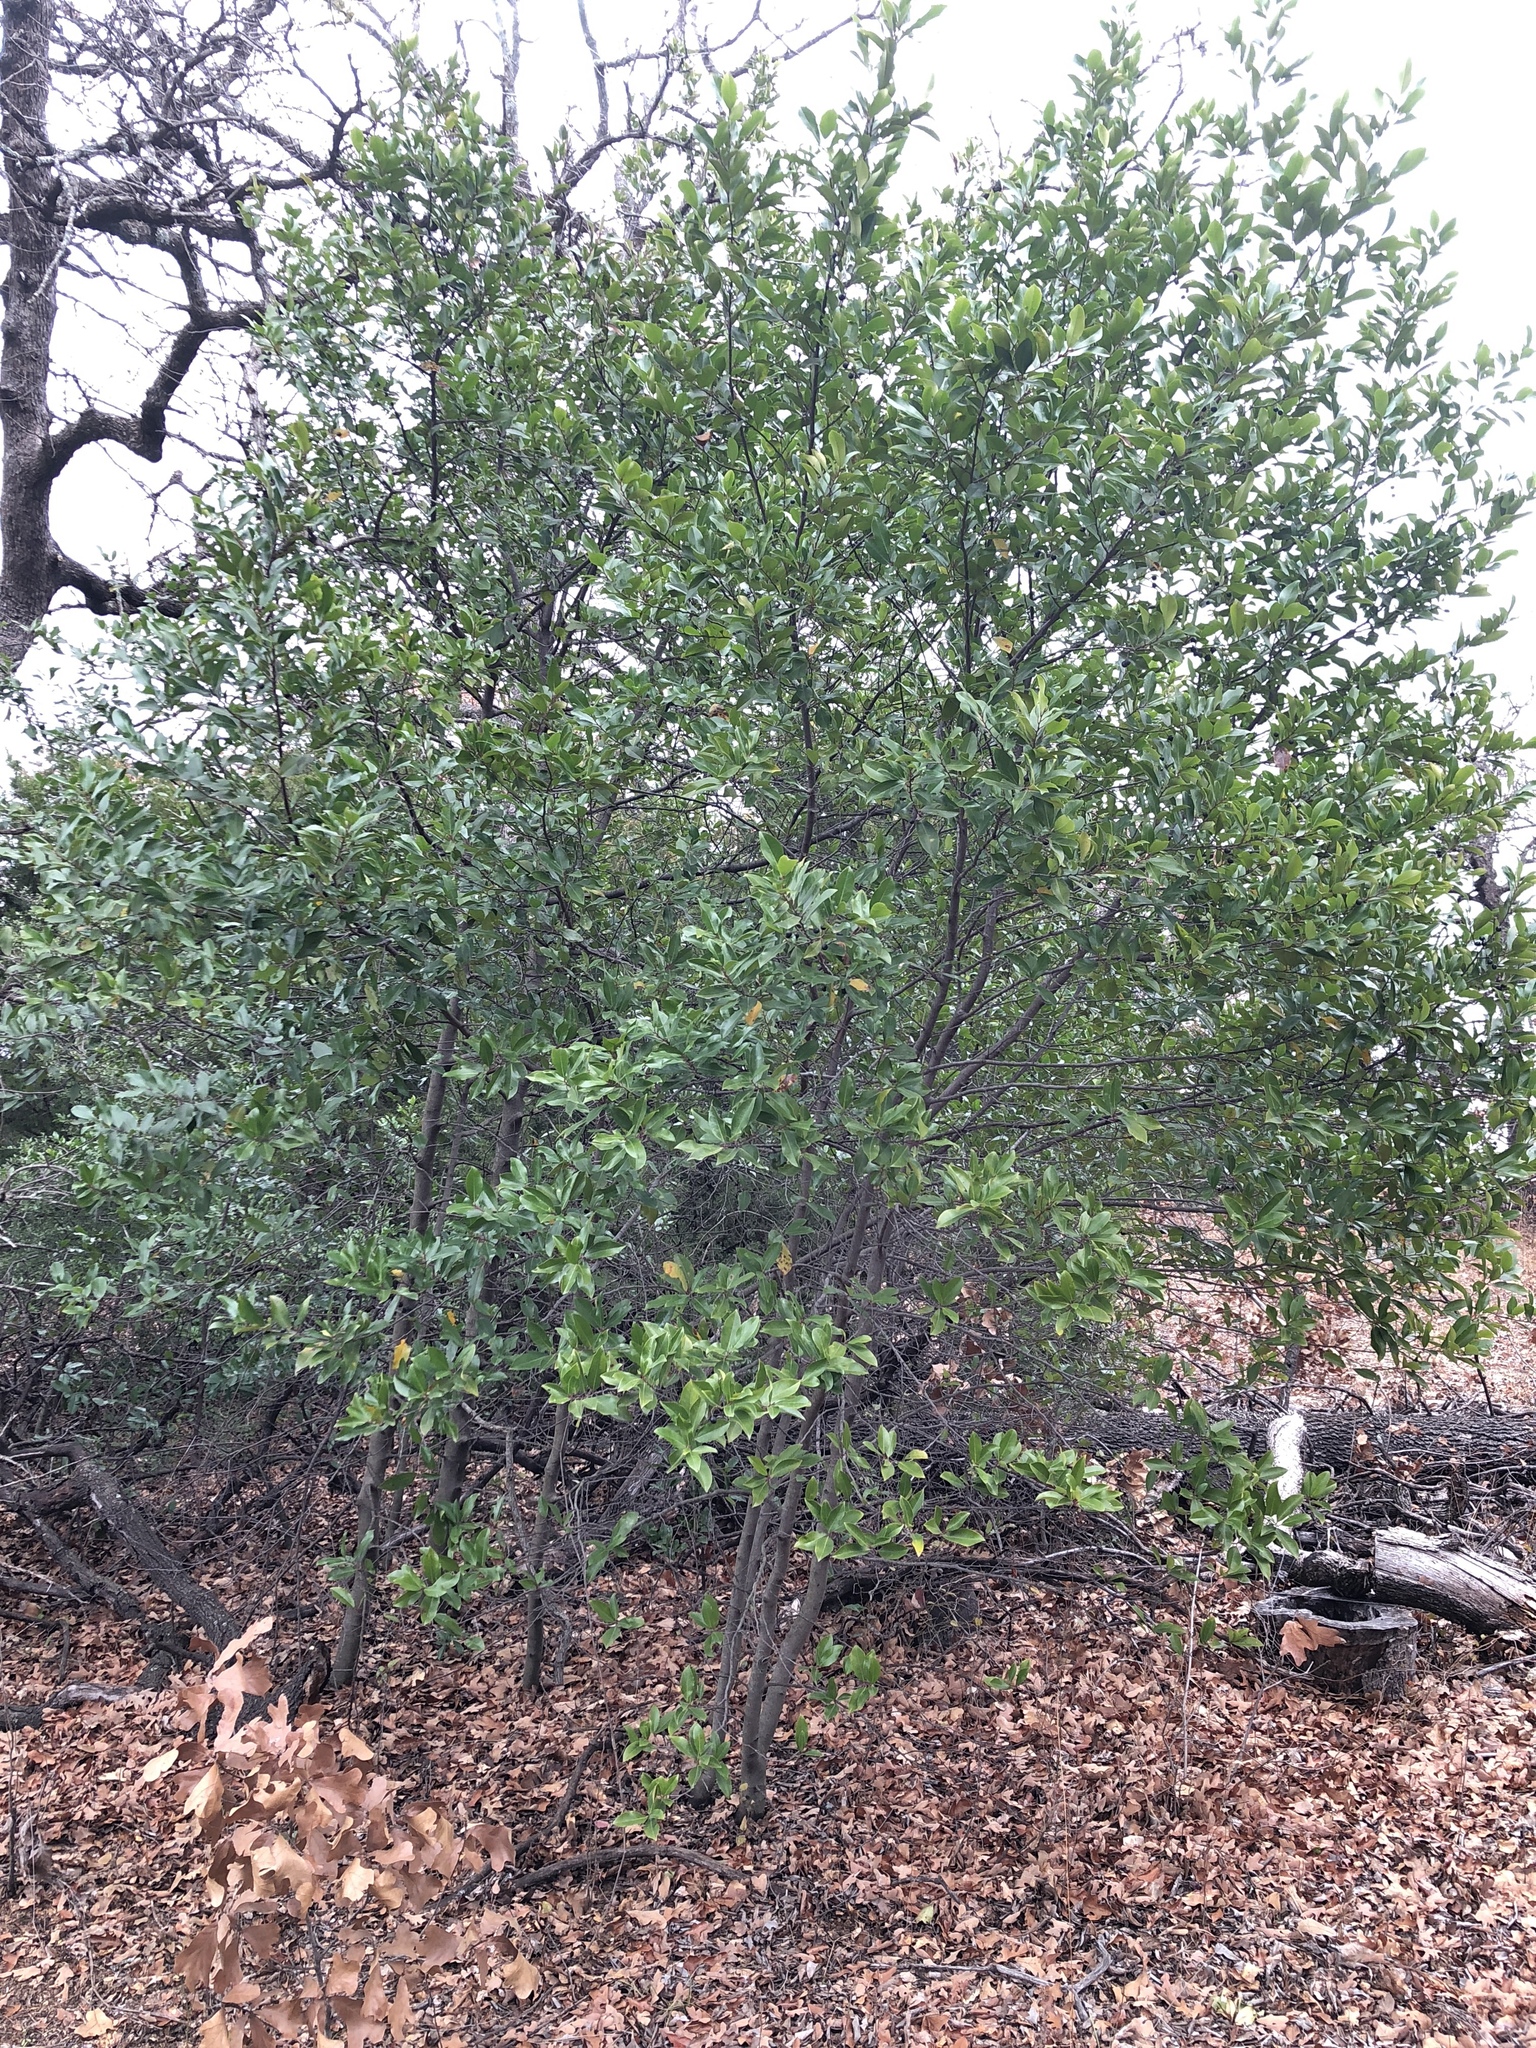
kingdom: Plantae
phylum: Tracheophyta
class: Magnoliopsida
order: Rosales
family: Rosaceae
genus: Prunus
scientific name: Prunus caroliniana
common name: Carolina laurel cherry
